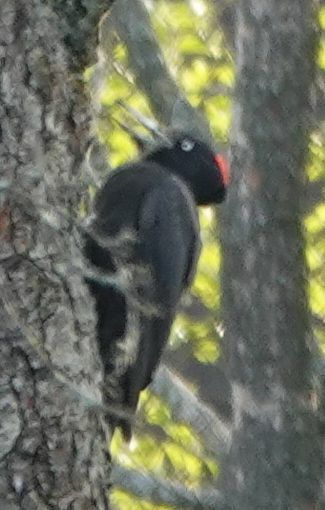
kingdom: Animalia
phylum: Chordata
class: Aves
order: Piciformes
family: Picidae
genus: Dryocopus
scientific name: Dryocopus martius
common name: Black woodpecker
